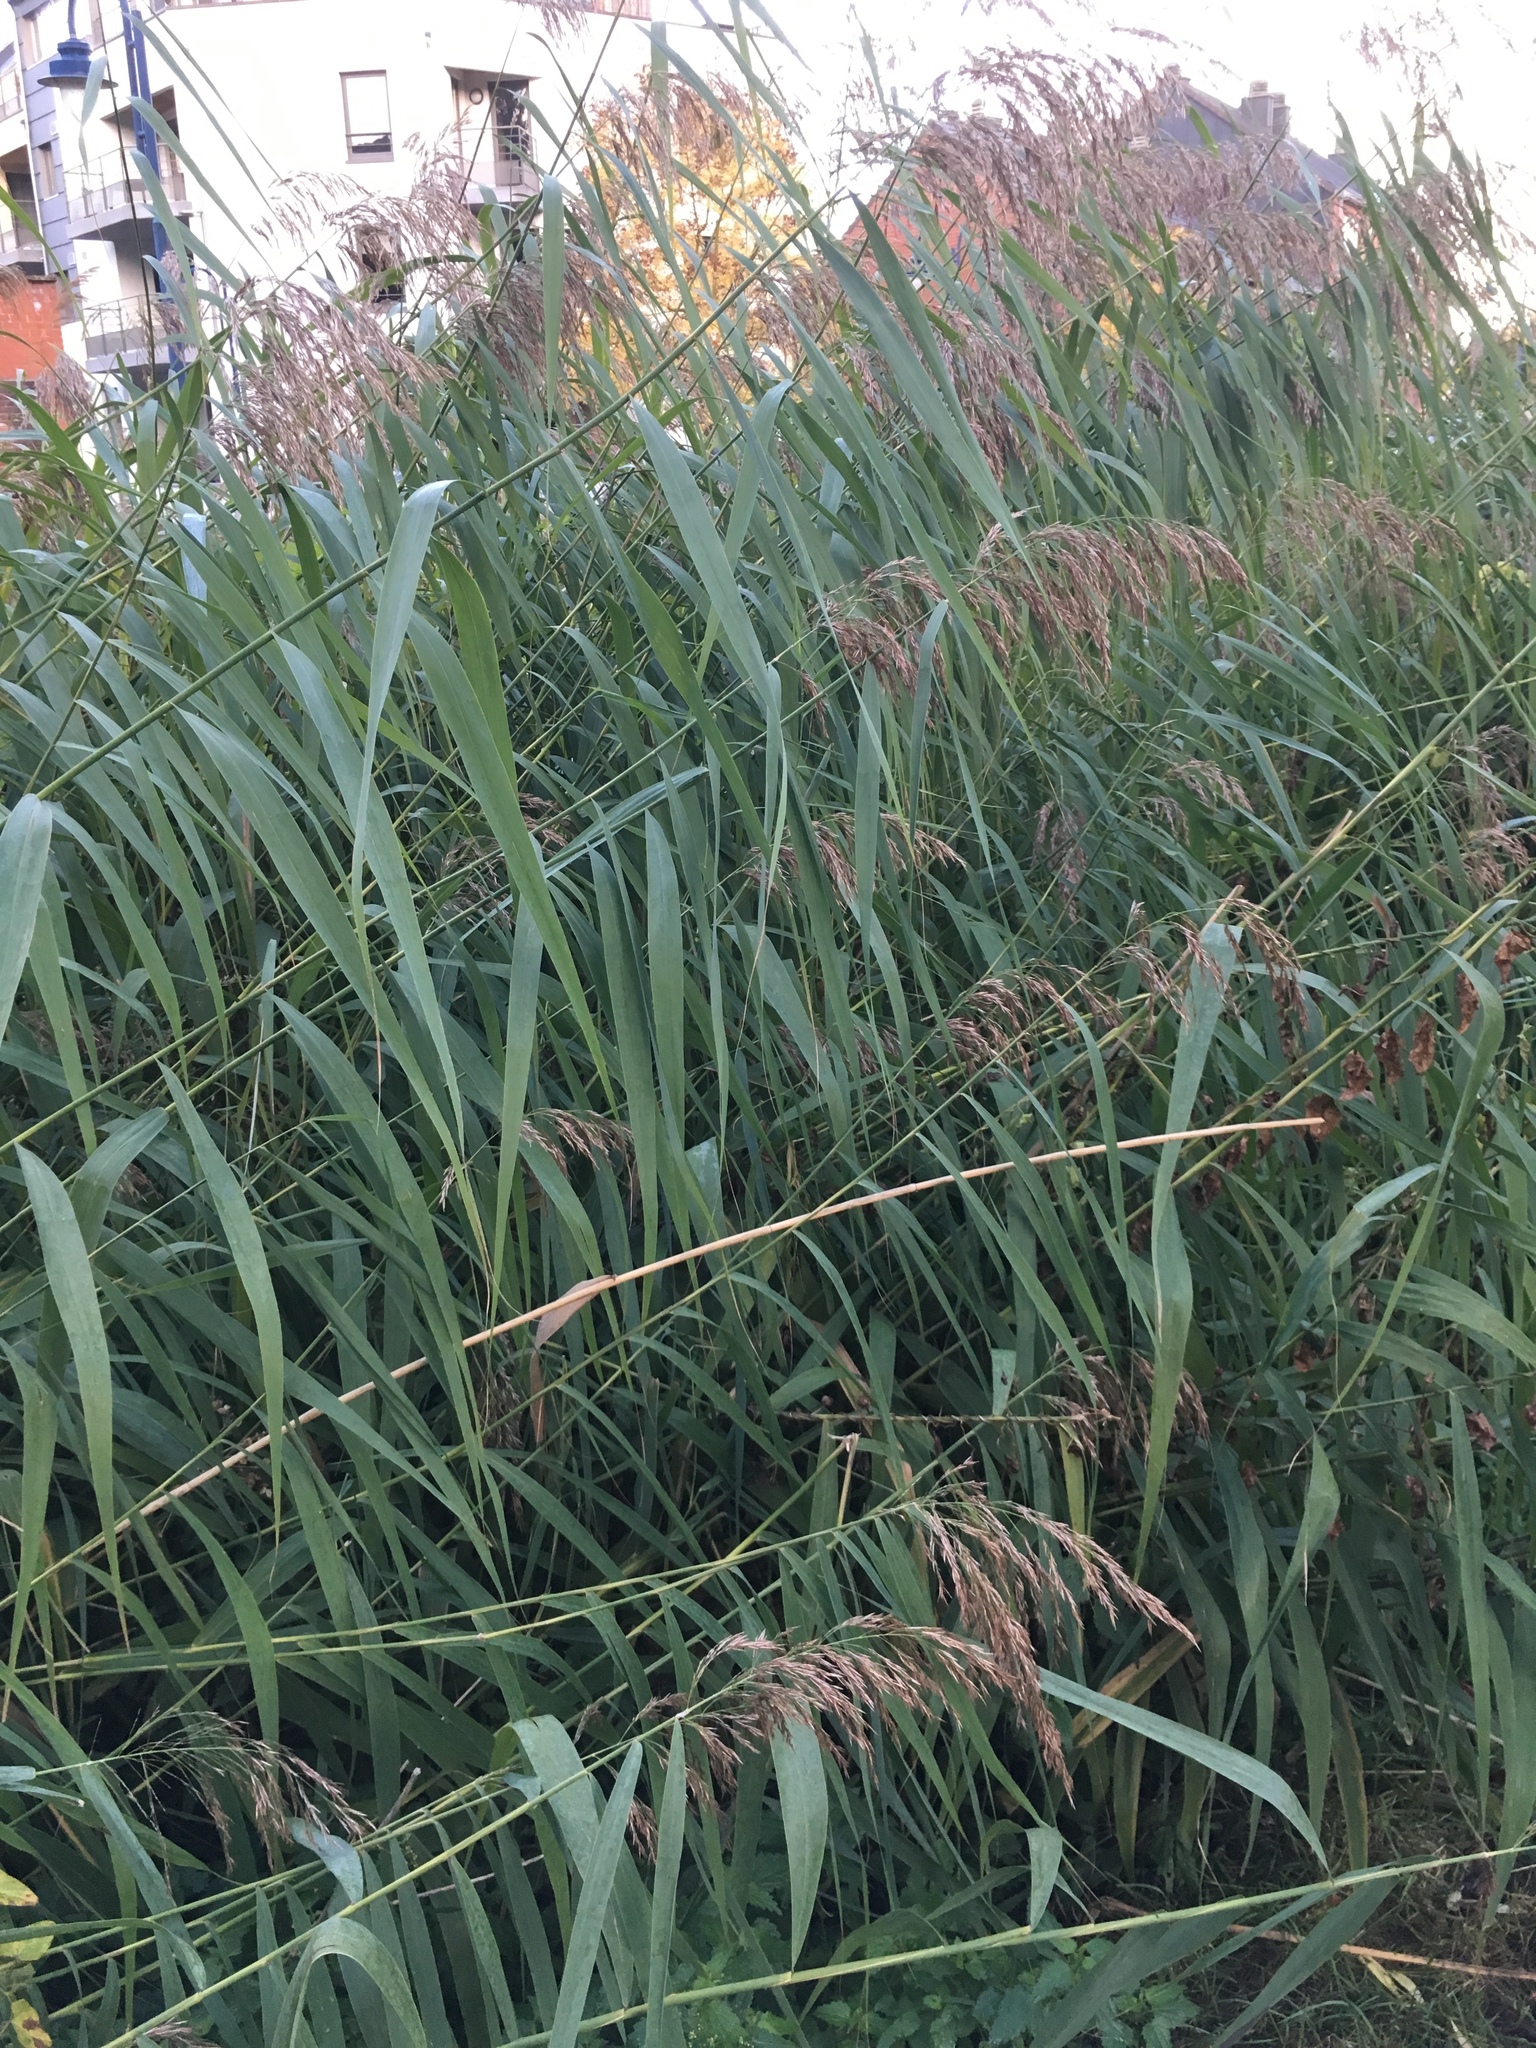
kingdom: Plantae
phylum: Tracheophyta
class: Liliopsida
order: Poales
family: Poaceae
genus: Phragmites
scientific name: Phragmites australis
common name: Common reed
